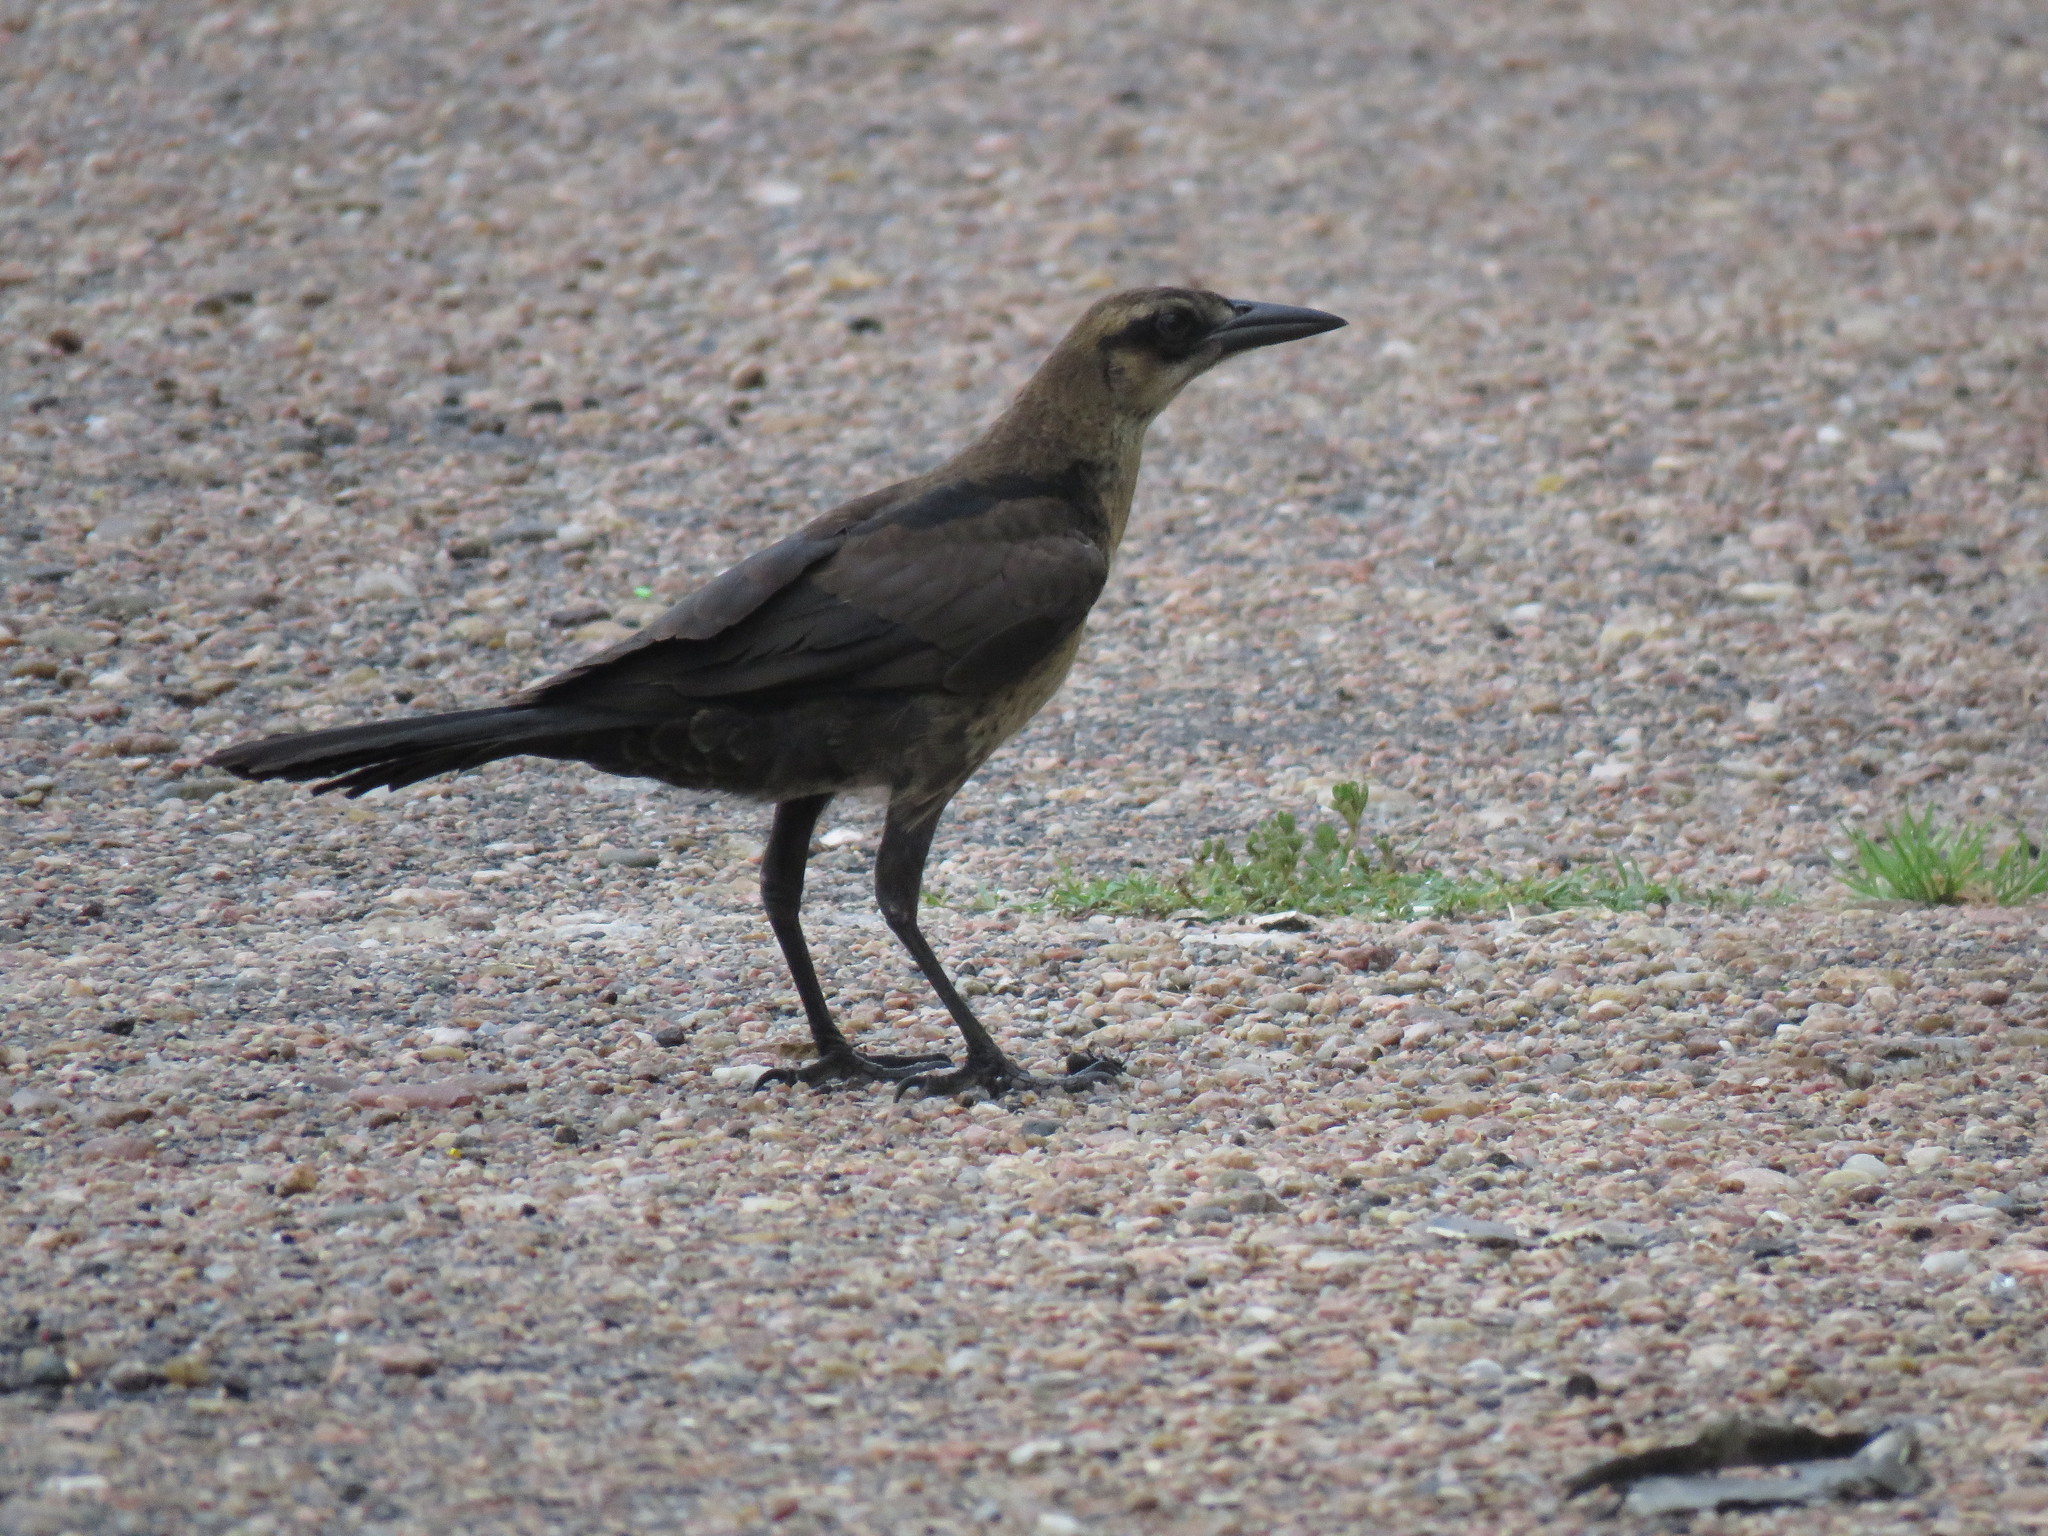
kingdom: Animalia
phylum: Chordata
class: Aves
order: Passeriformes
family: Icteridae
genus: Quiscalus
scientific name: Quiscalus mexicanus
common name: Great-tailed grackle
